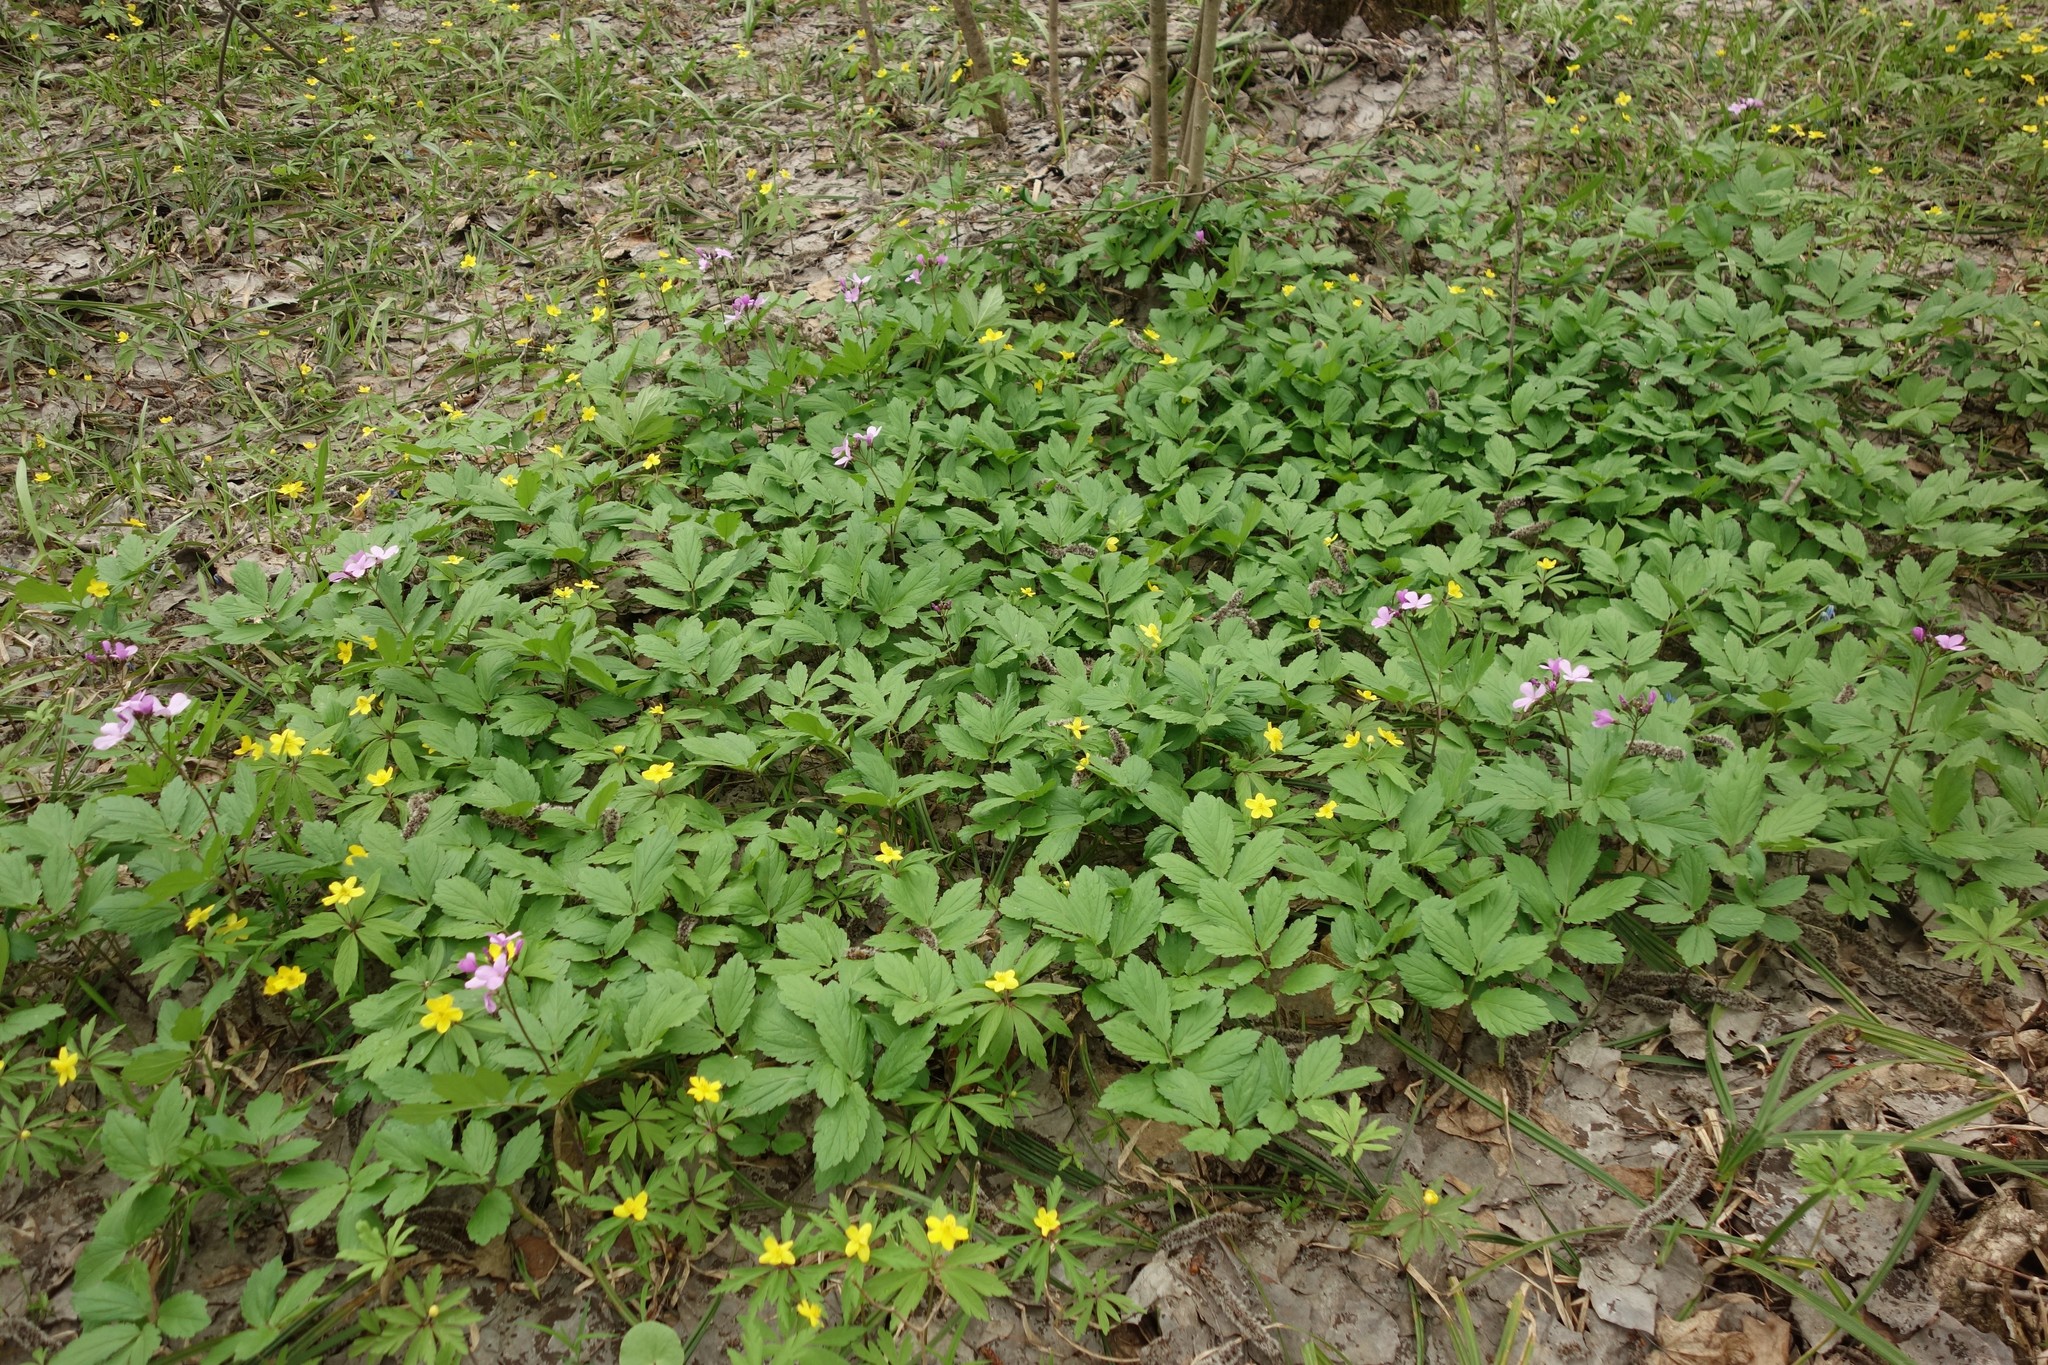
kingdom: Plantae
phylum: Tracheophyta
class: Magnoliopsida
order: Brassicales
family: Brassicaceae
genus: Cardamine
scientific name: Cardamine quinquefolia
